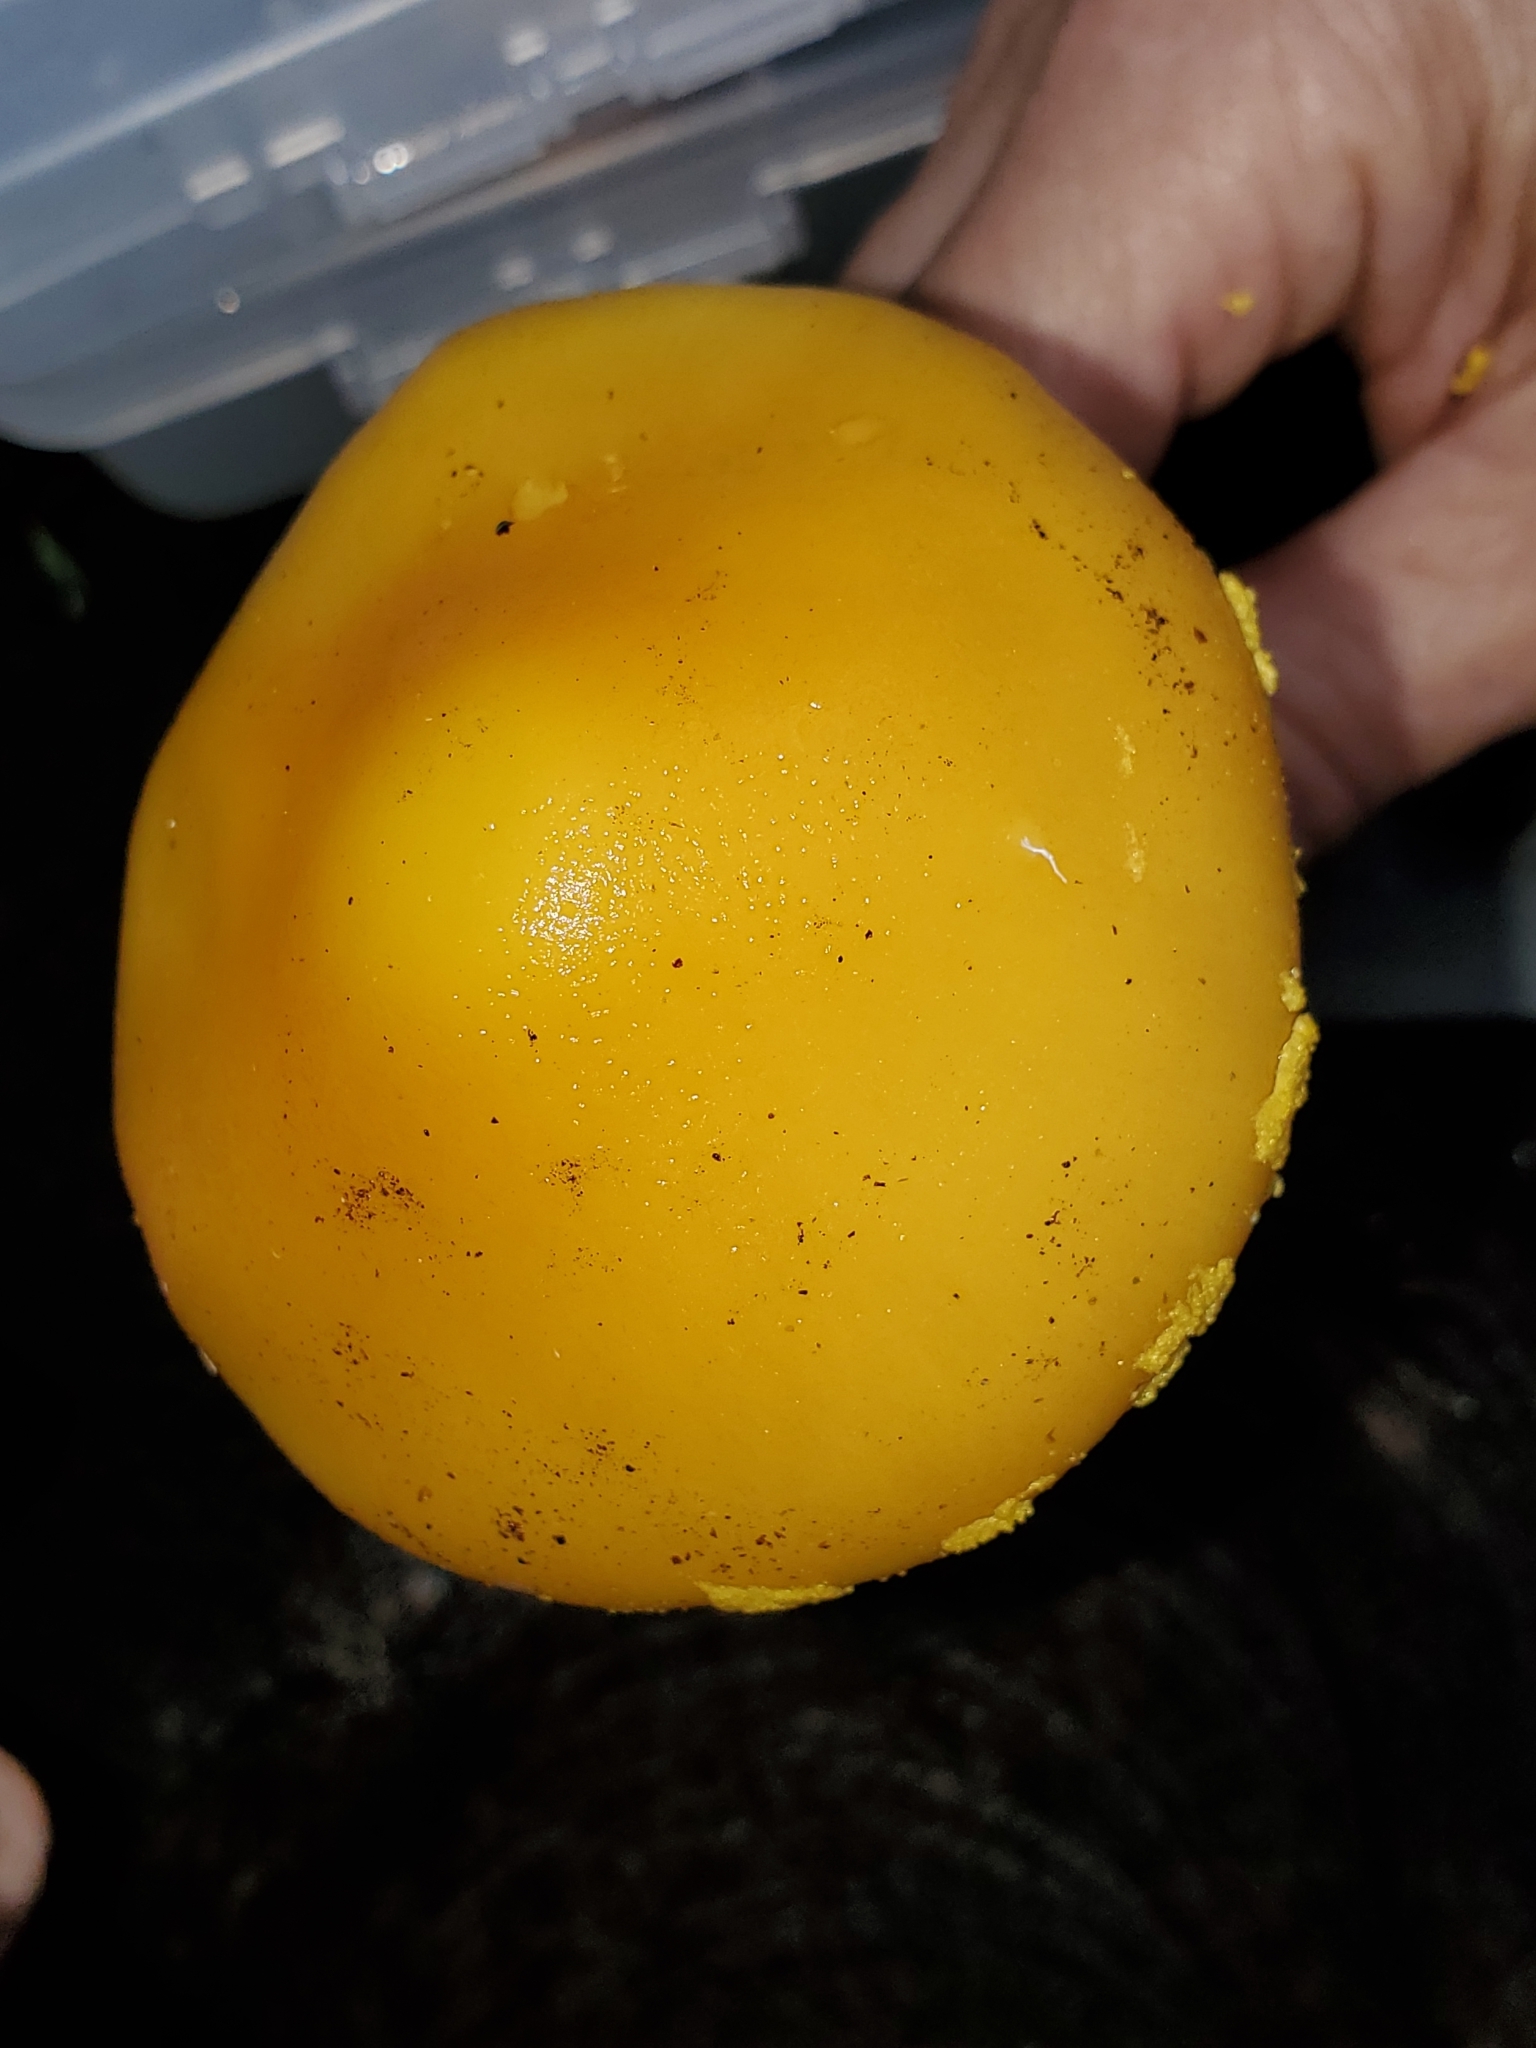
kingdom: Fungi
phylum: Basidiomycota
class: Agaricomycetes
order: Agaricales
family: Amanitaceae
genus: Amanita
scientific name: Amanita flavoconia
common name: Yellow patches
